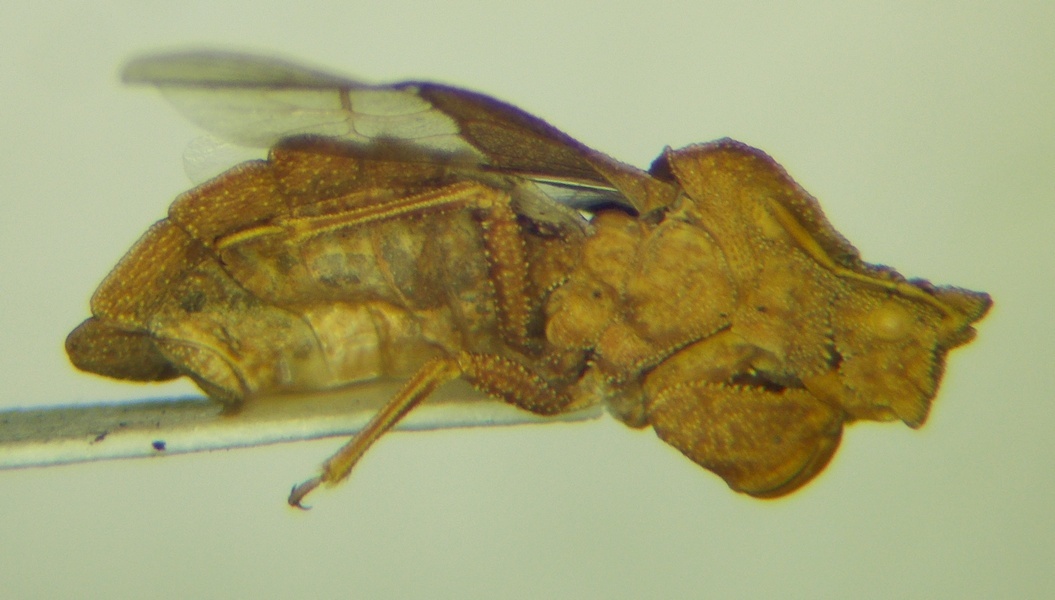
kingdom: Animalia
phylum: Arthropoda
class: Insecta
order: Hemiptera
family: Reduviidae
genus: Phymata
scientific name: Phymata crassipes
